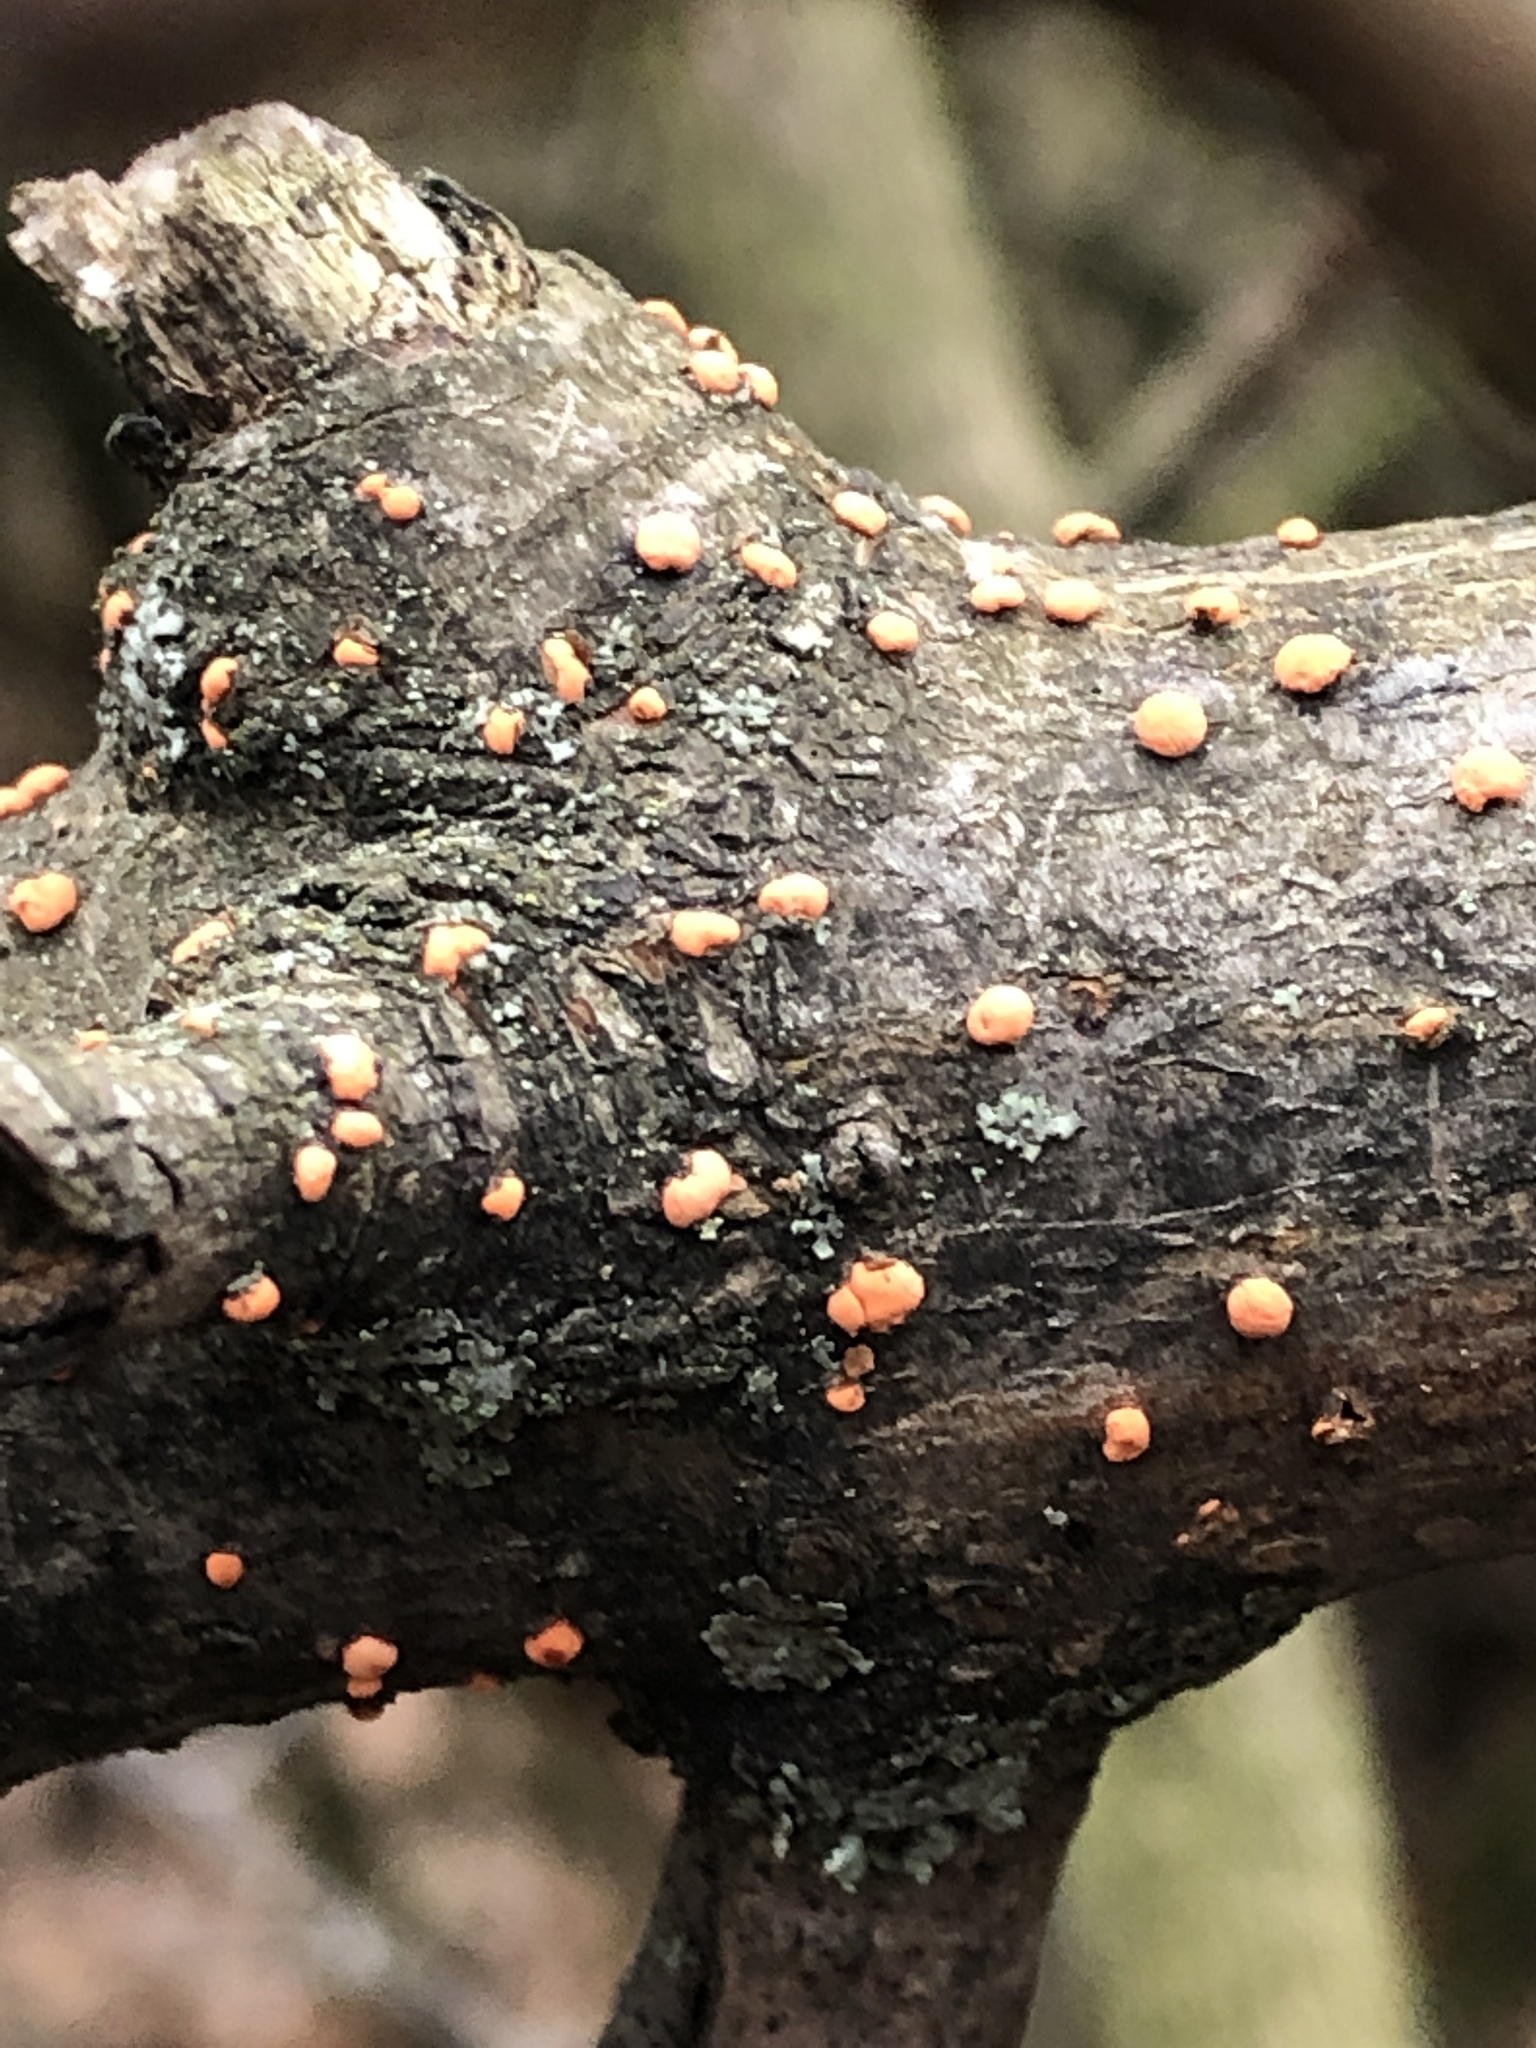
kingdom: Fungi
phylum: Ascomycota
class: Sordariomycetes
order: Hypocreales
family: Nectriaceae
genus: Nectria
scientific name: Nectria cinnabarina
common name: Coral spot
